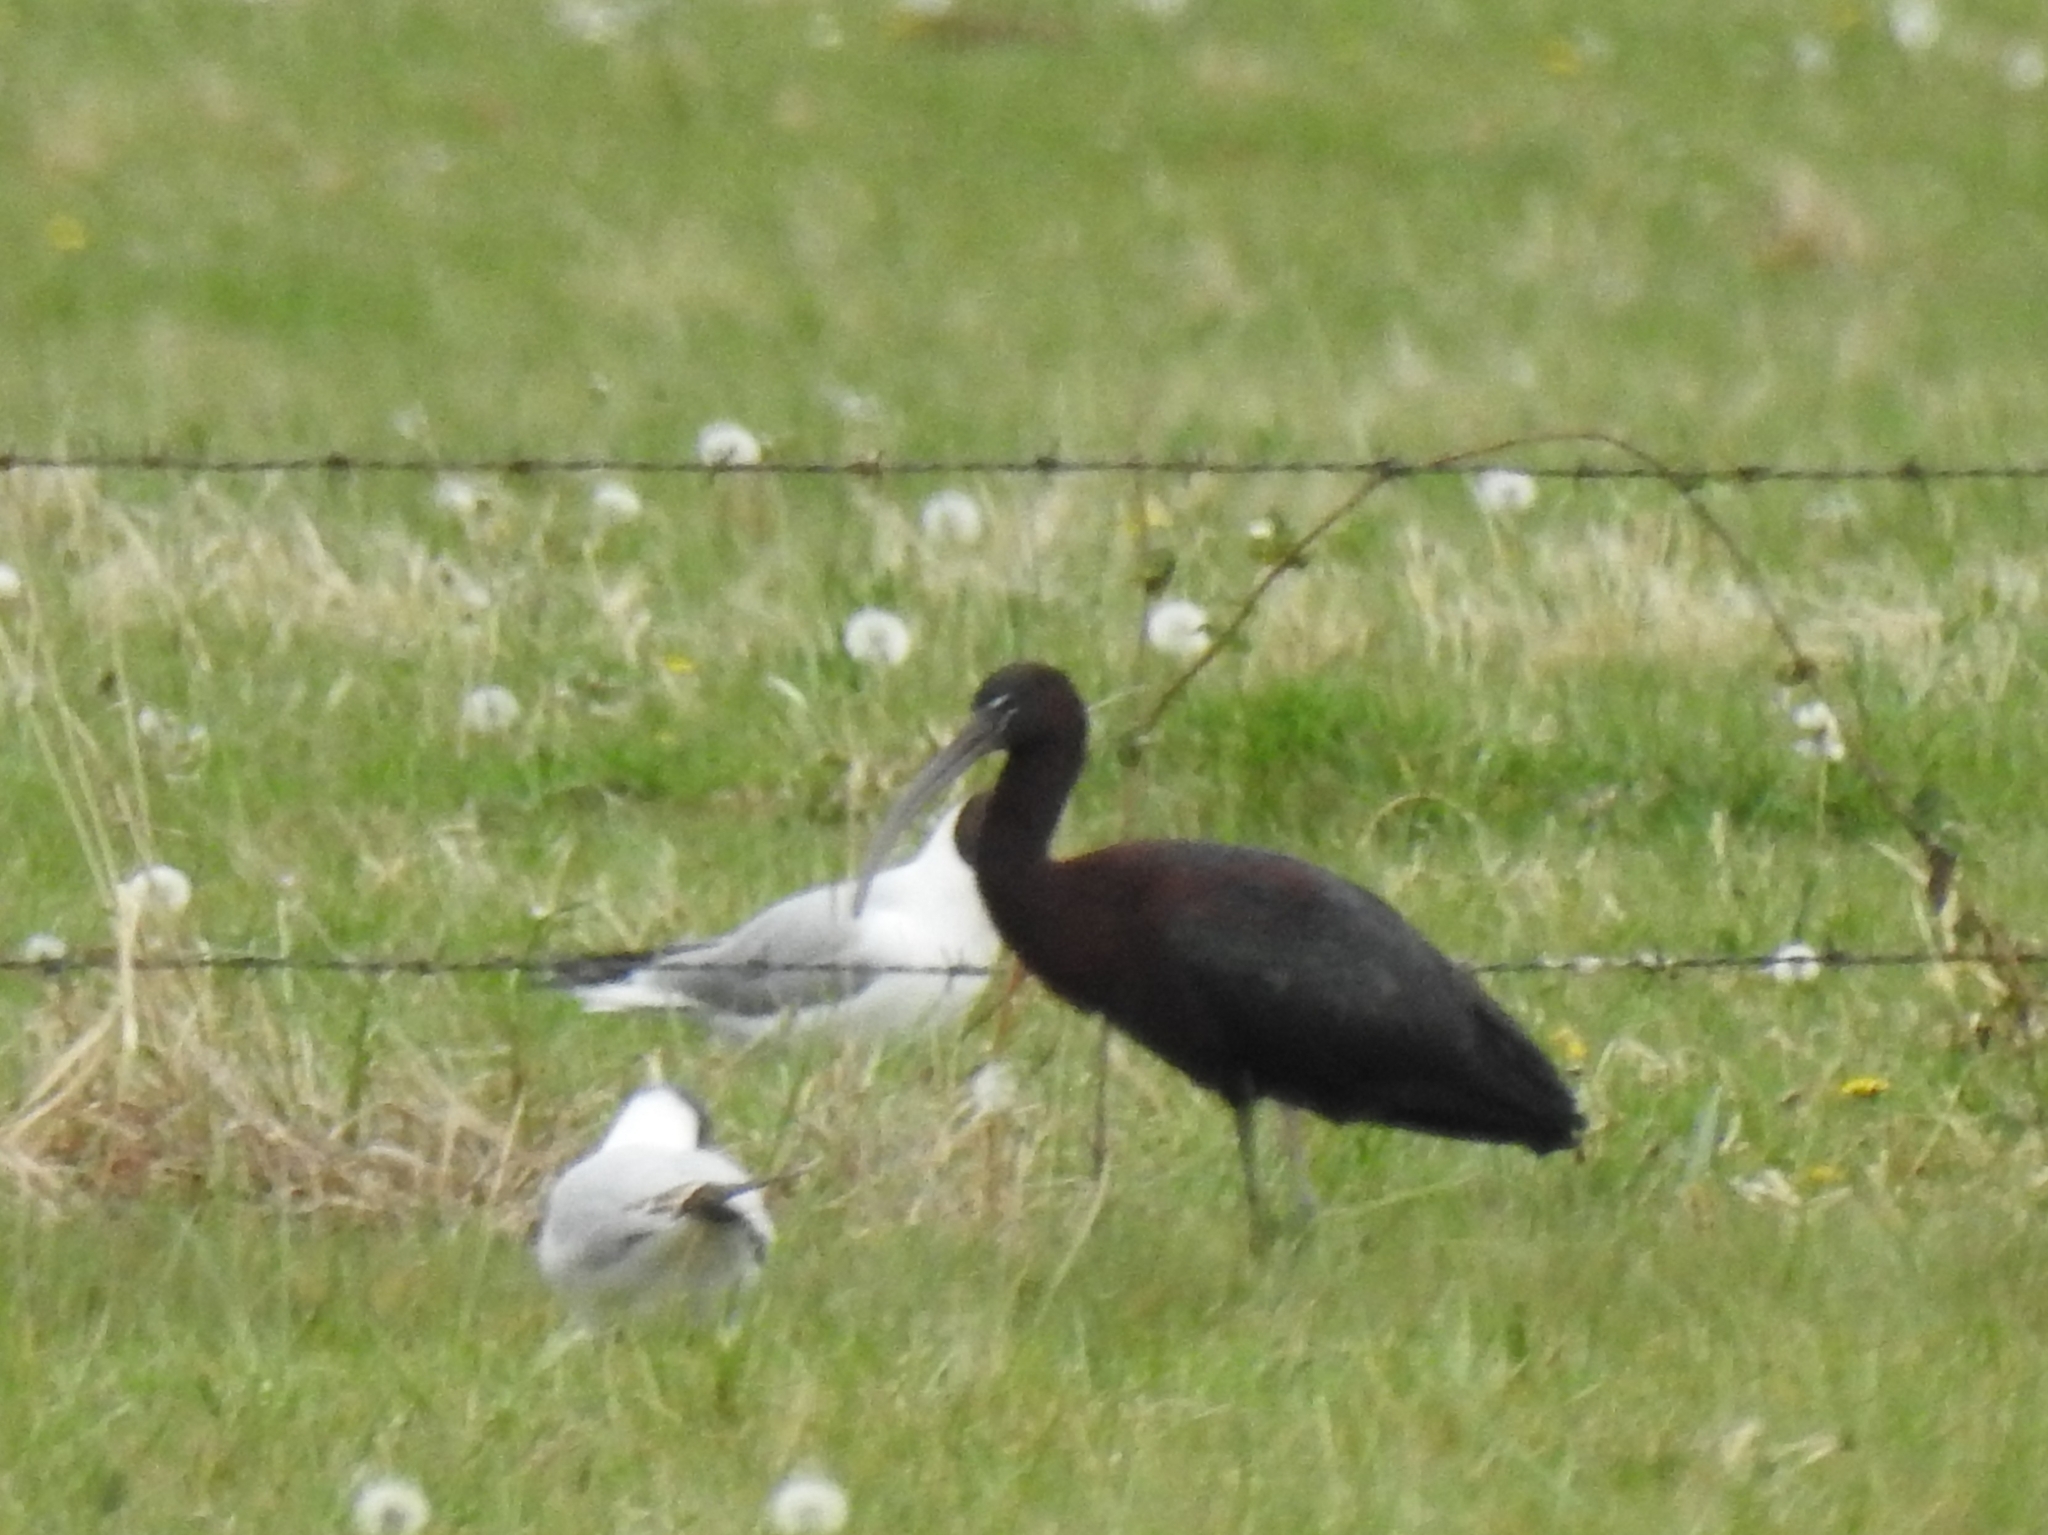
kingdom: Animalia
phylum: Chordata
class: Aves
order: Pelecaniformes
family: Threskiornithidae
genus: Plegadis
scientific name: Plegadis falcinellus
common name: Glossy ibis
